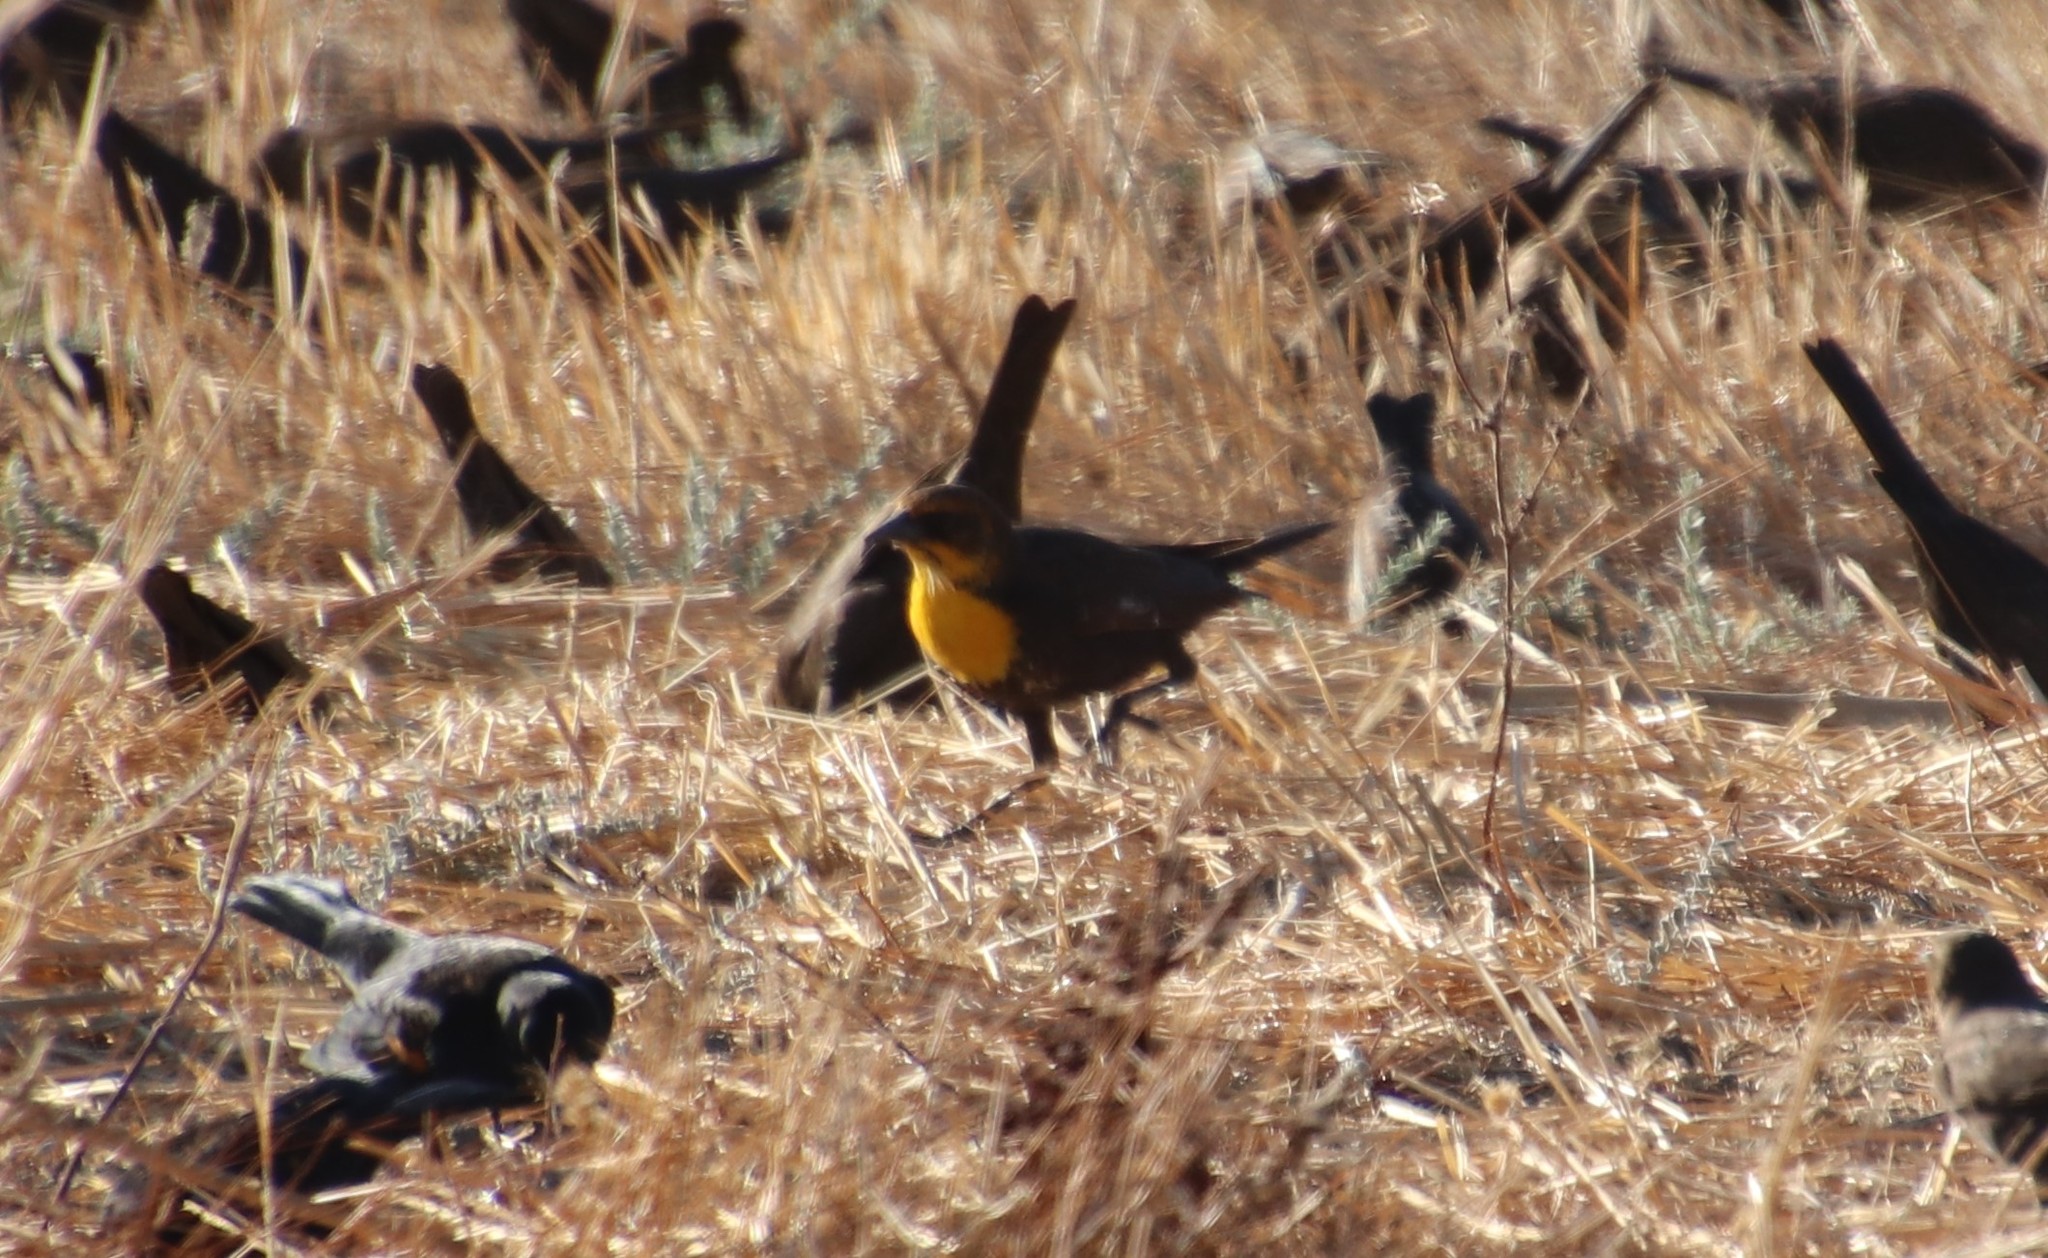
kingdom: Animalia
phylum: Chordata
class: Aves
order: Passeriformes
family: Icteridae
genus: Xanthocephalus
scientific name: Xanthocephalus xanthocephalus
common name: Yellow-headed blackbird
